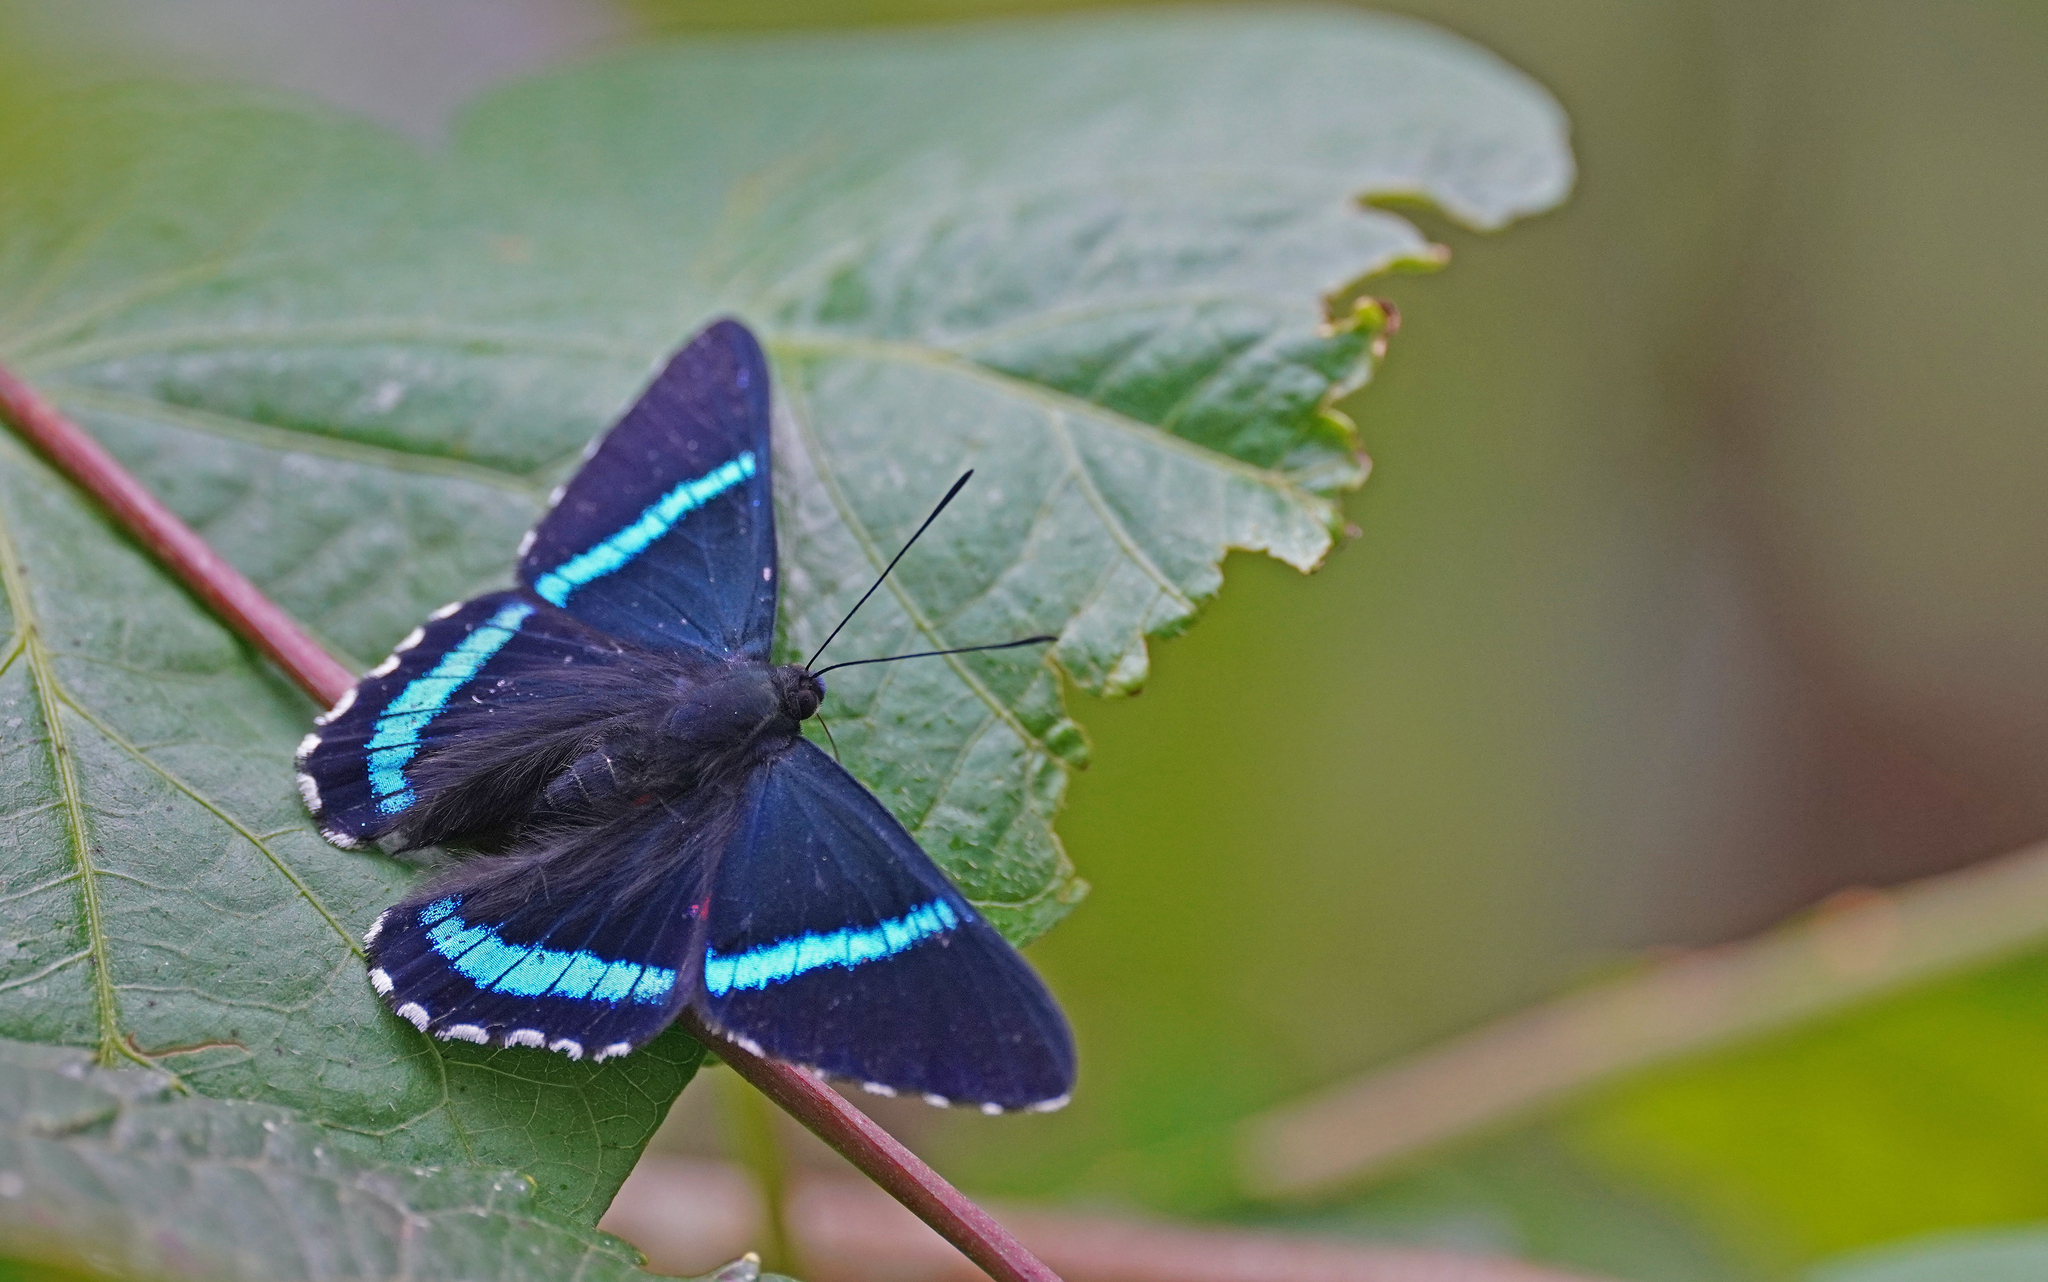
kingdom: Animalia
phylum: Arthropoda
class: Insecta
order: Lepidoptera
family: Lycaenidae
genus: Necyria
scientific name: Necyria bellona
